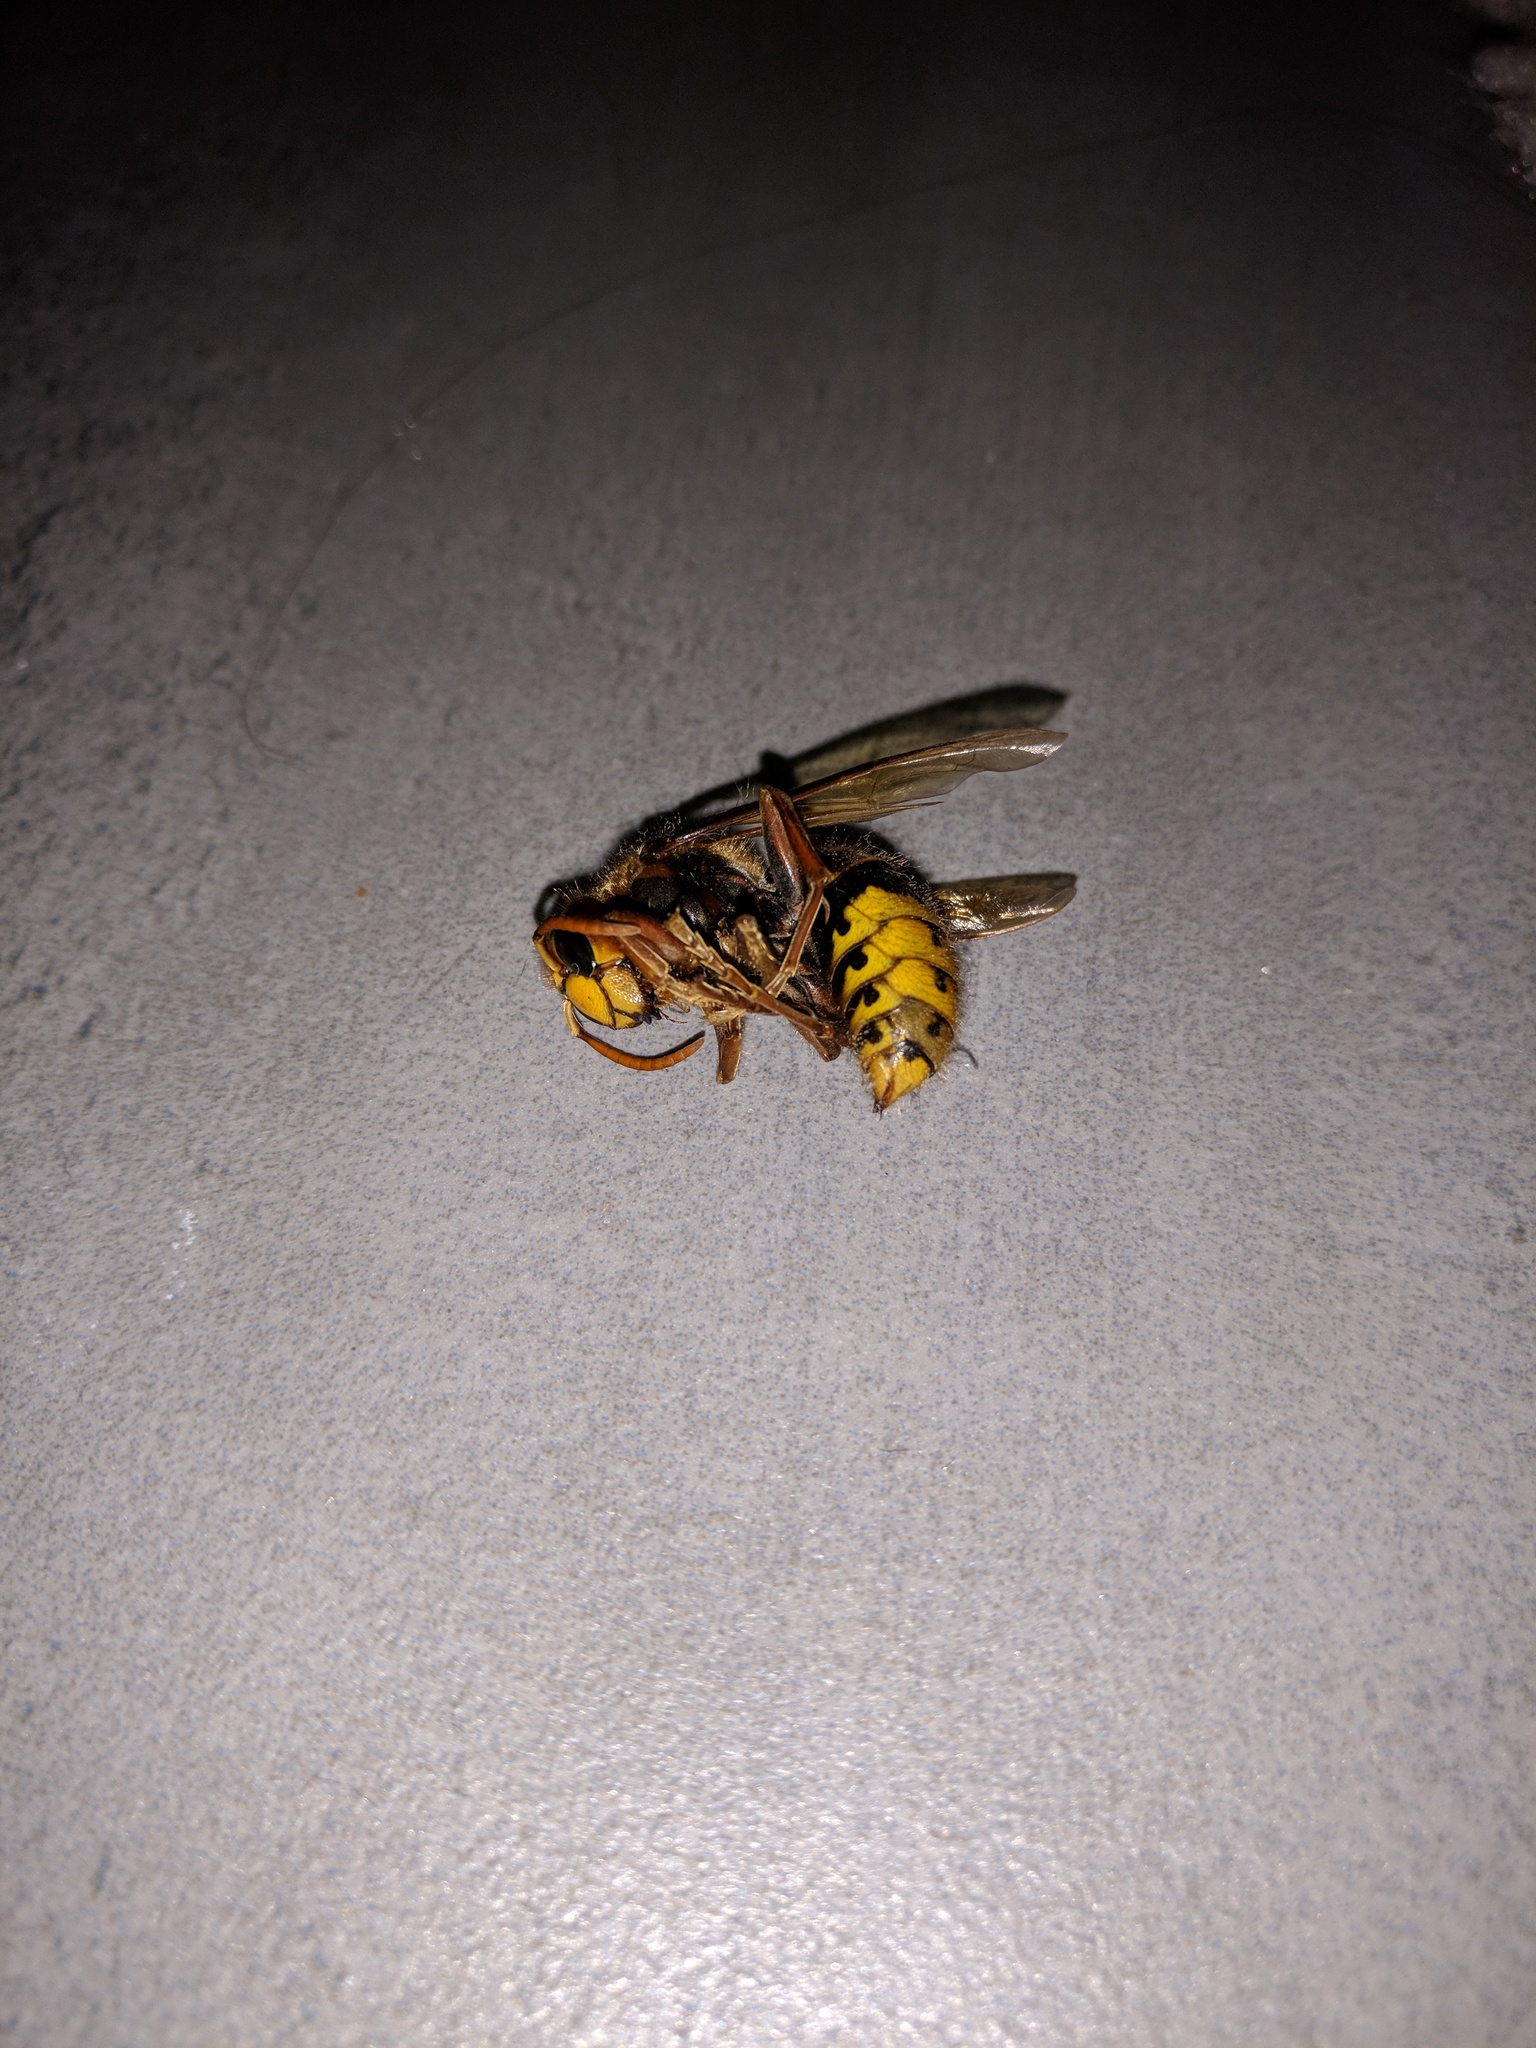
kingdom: Animalia
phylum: Arthropoda
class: Insecta
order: Hymenoptera
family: Vespidae
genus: Vespa
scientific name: Vespa crabro
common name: Hornet
